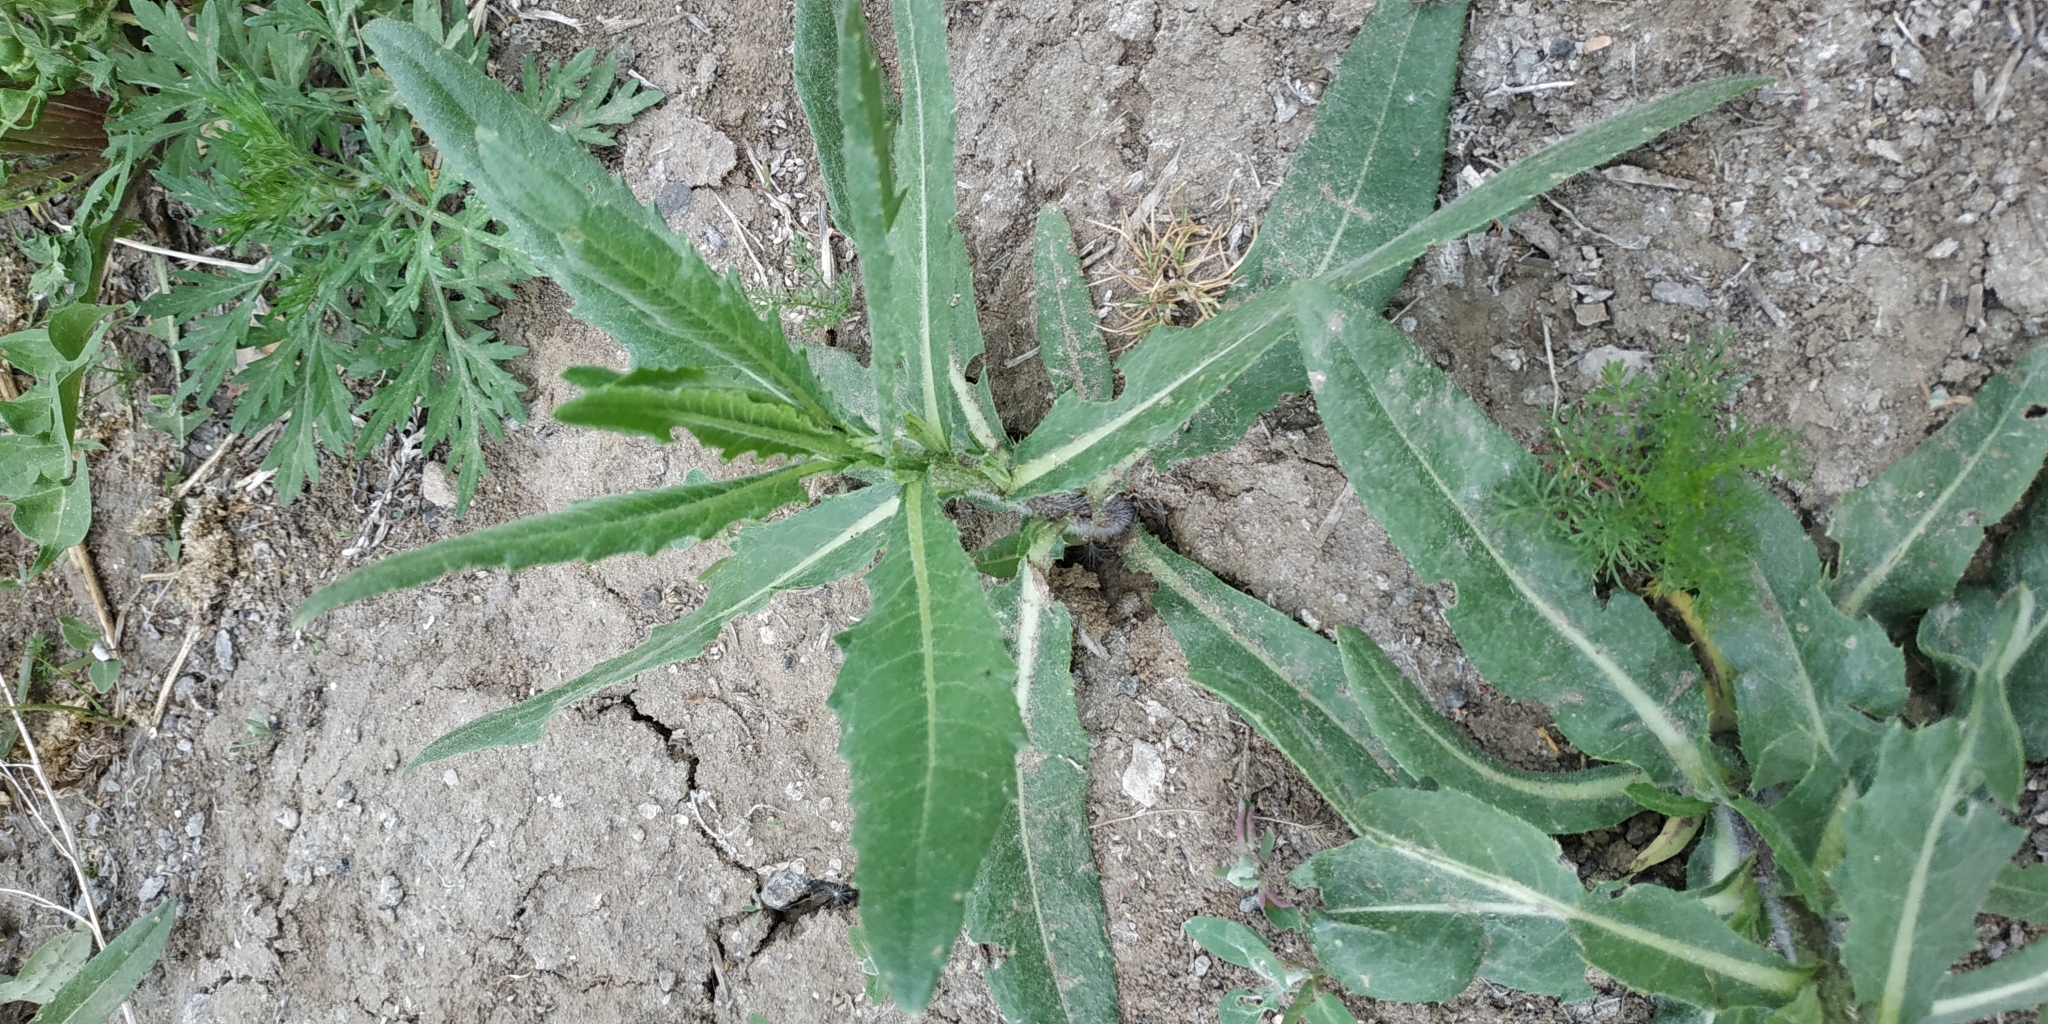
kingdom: Plantae
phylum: Tracheophyta
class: Magnoliopsida
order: Asterales
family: Asteraceae
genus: Cirsium
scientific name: Cirsium arvense
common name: Creeping thistle
